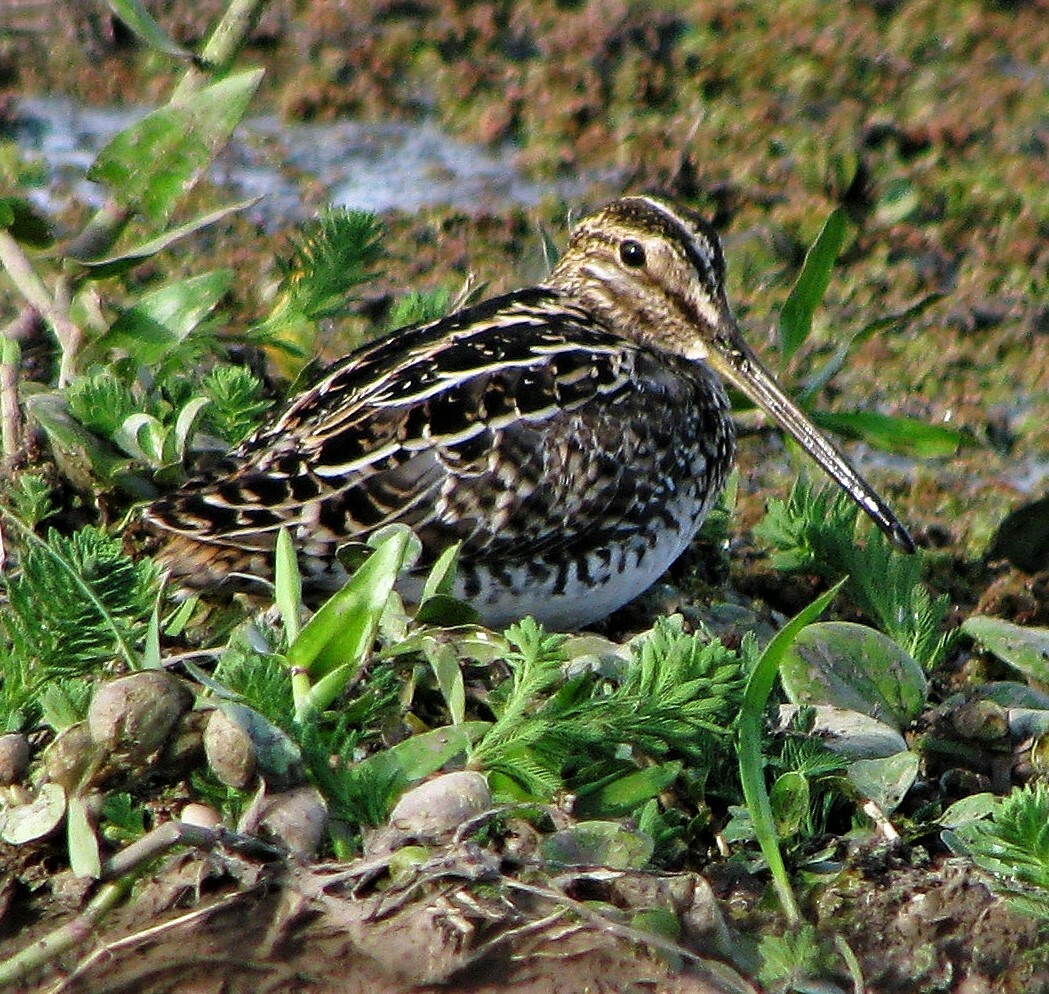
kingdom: Animalia
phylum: Chordata
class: Aves
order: Charadriiformes
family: Scolopacidae
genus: Gallinago
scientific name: Gallinago paraguaiae
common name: South american snipe
